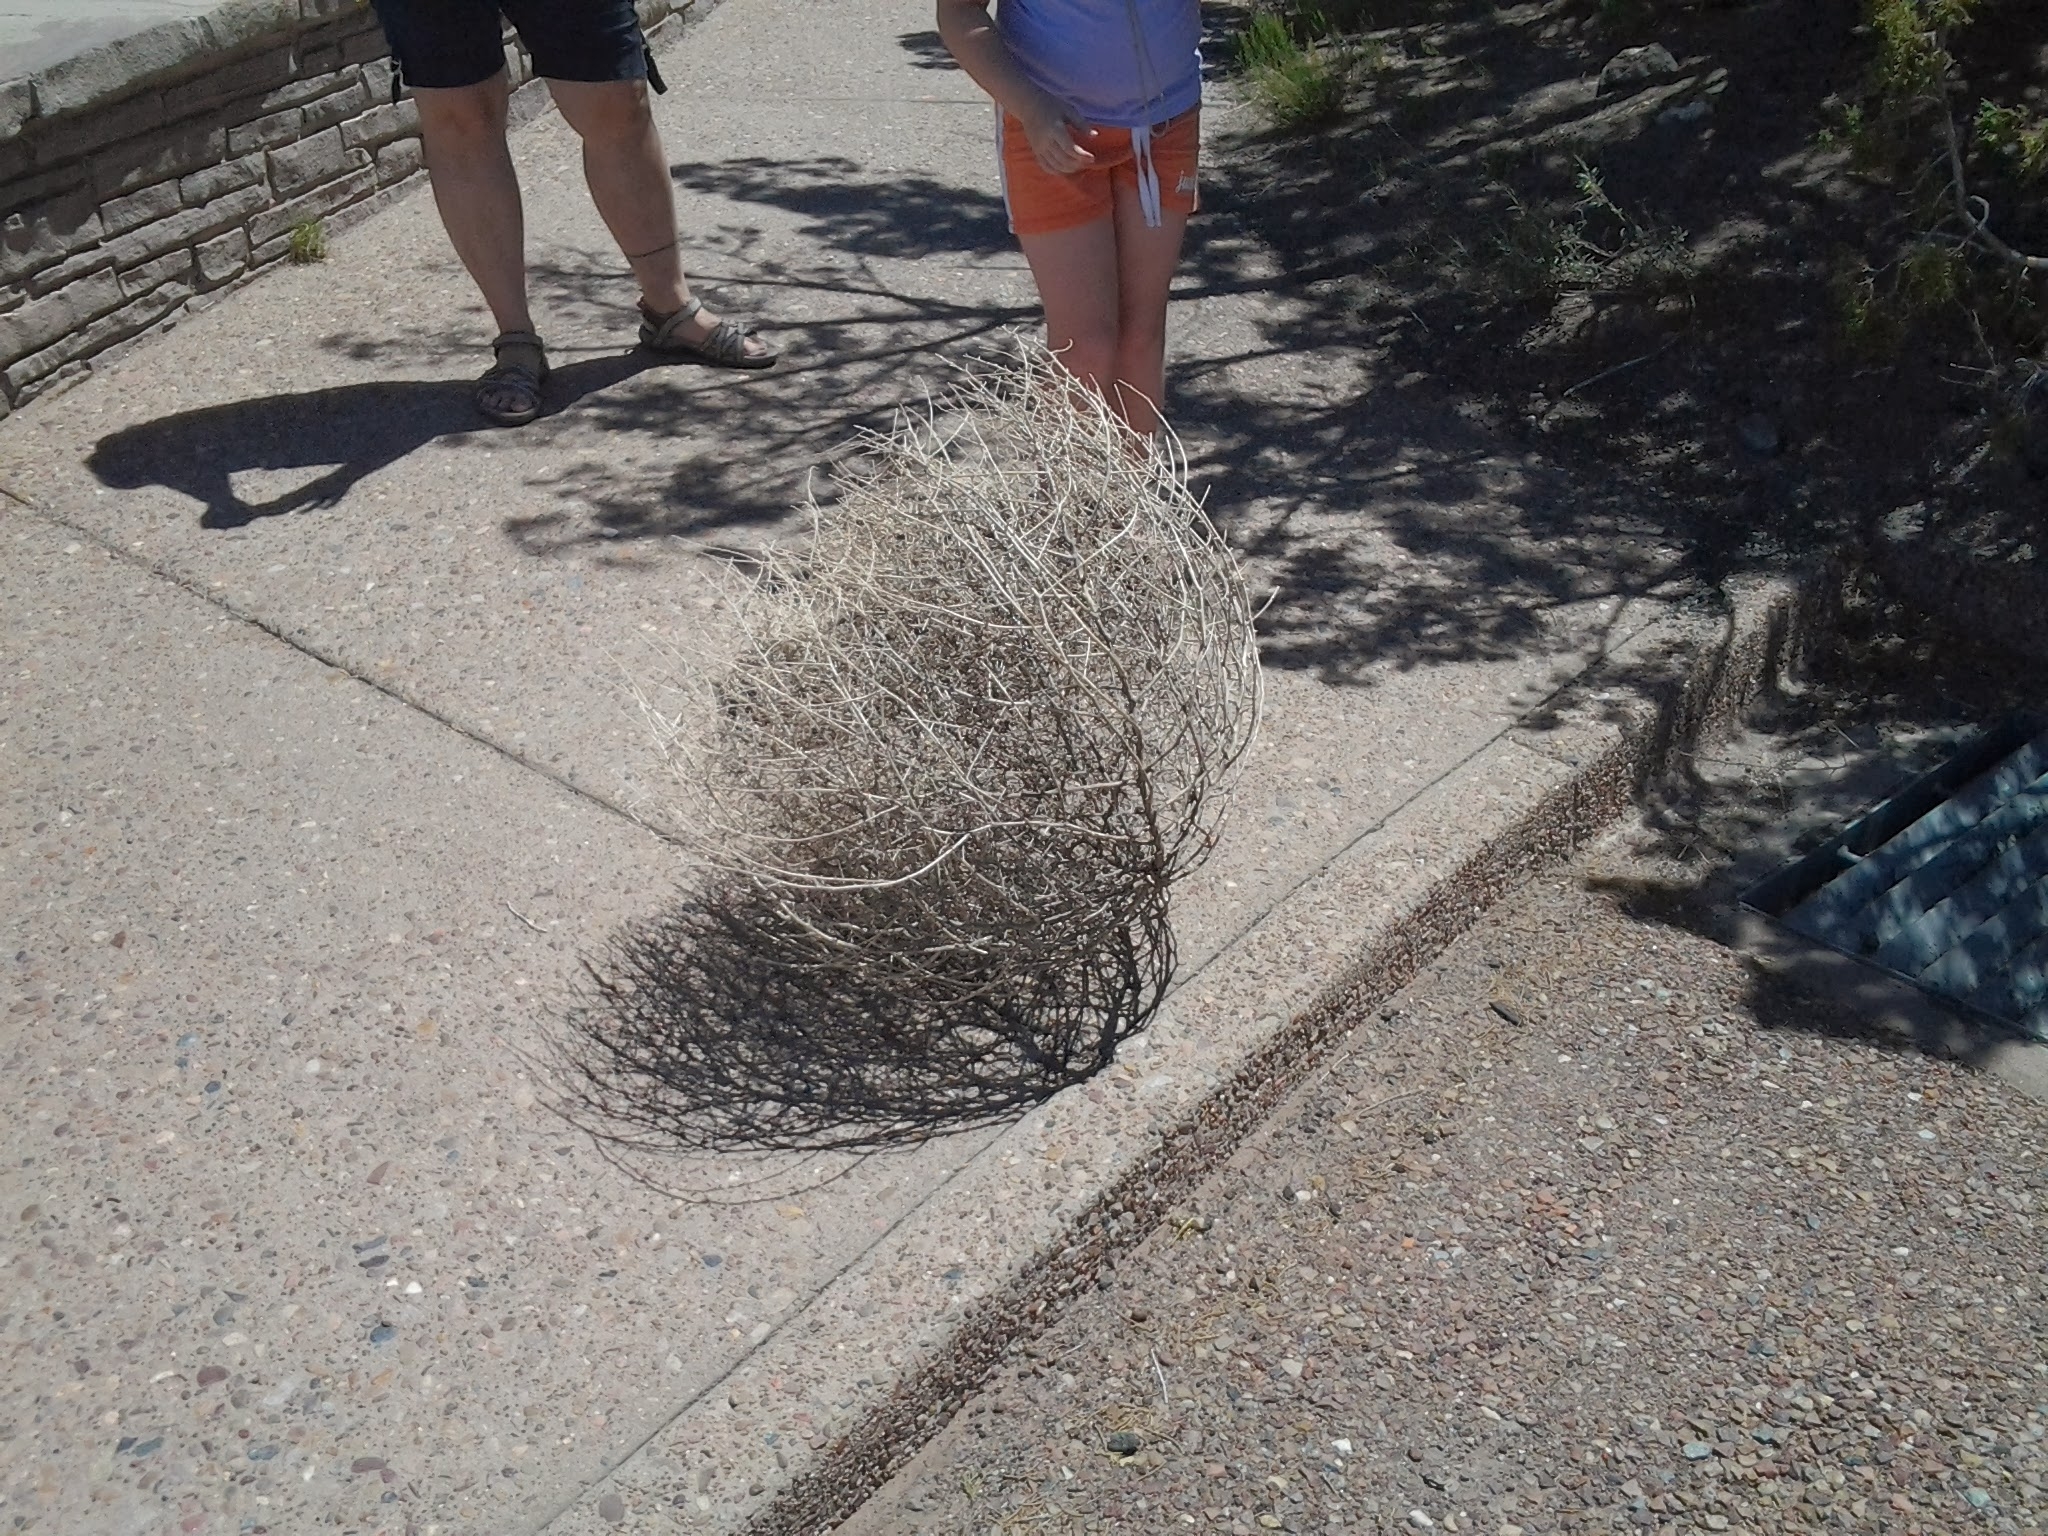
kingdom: Plantae
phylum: Tracheophyta
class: Magnoliopsida
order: Caryophyllales
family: Amaranthaceae
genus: Salsola
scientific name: Salsola tragus
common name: Prickly russian thistle
